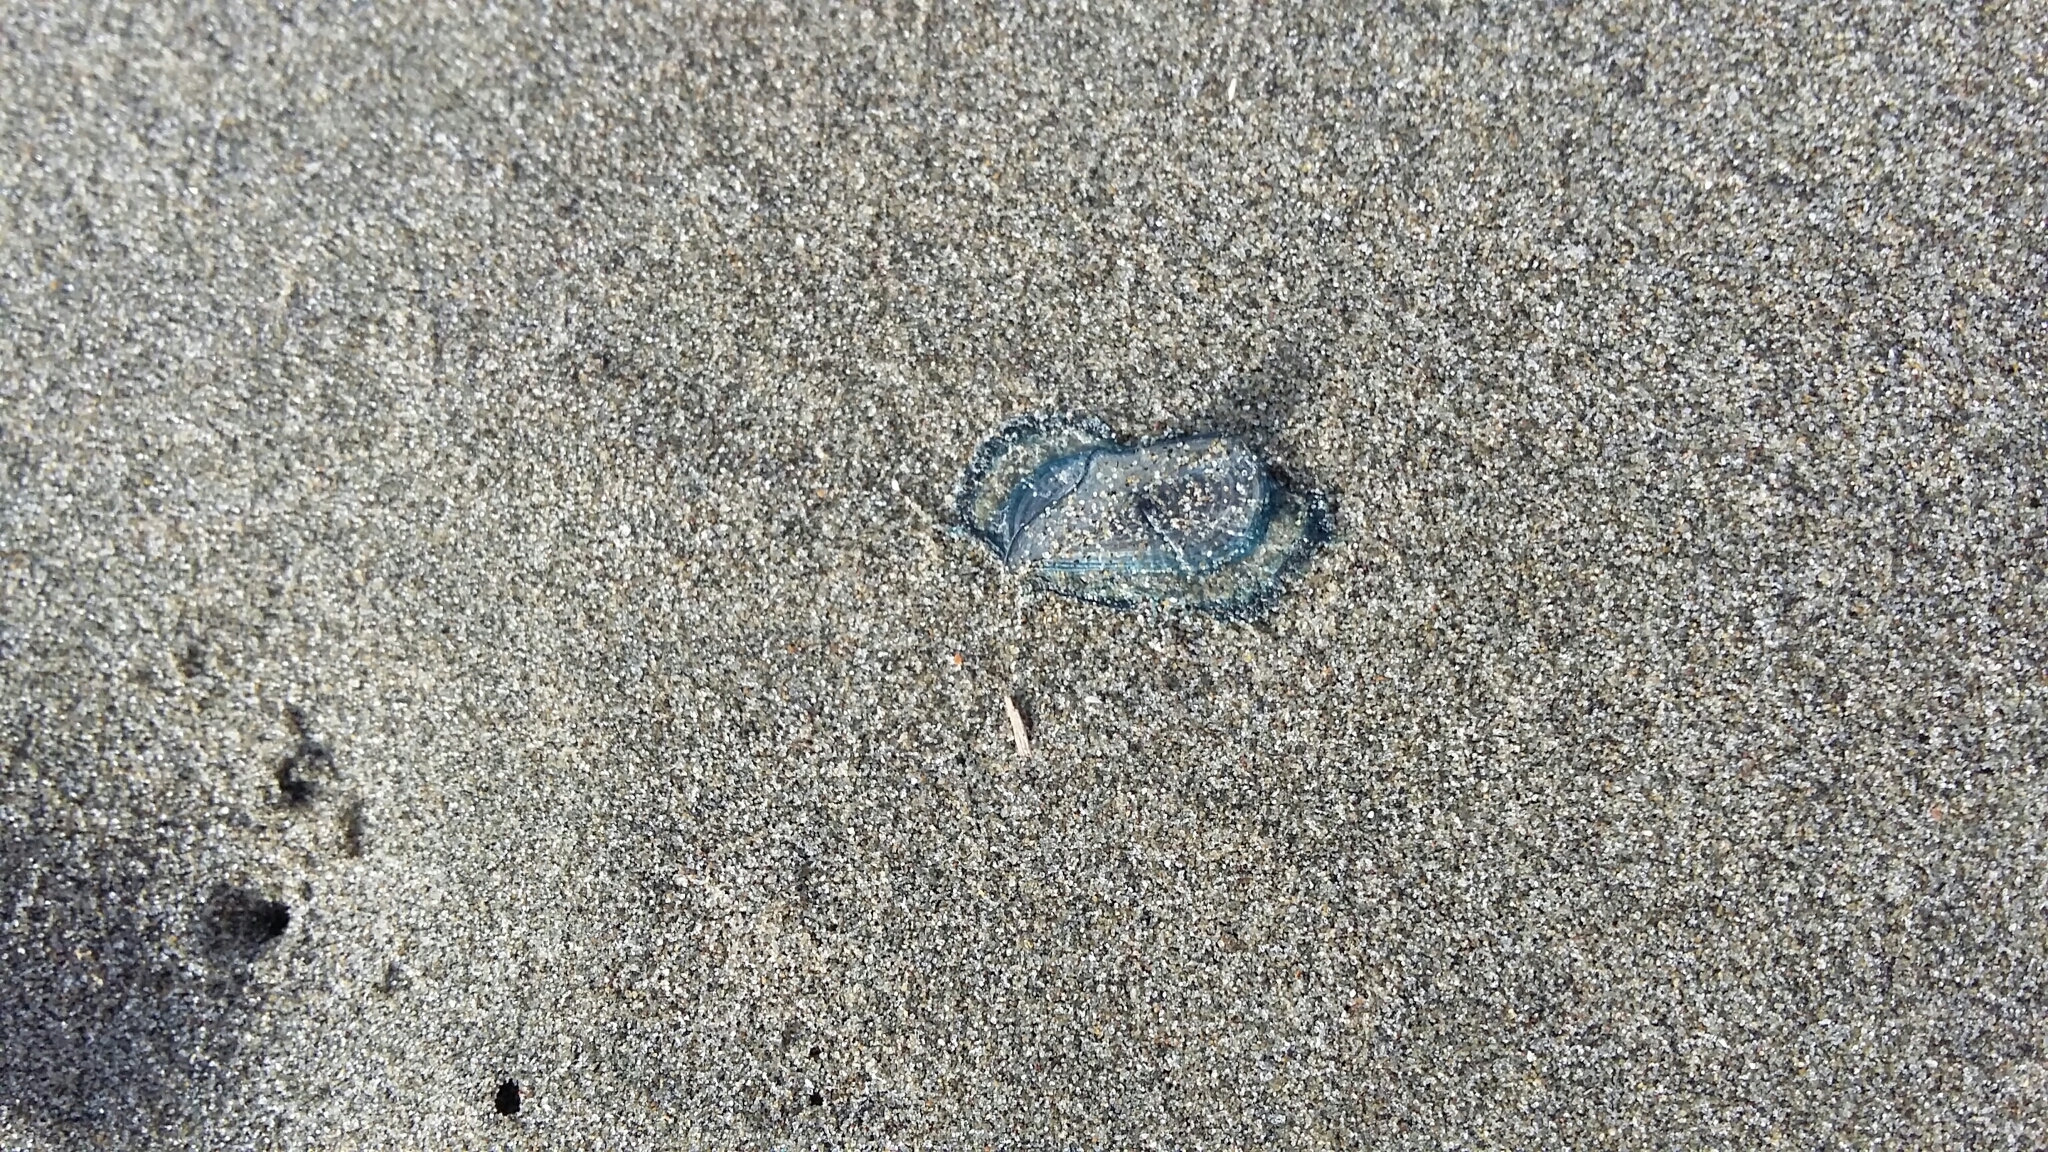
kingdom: Animalia
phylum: Cnidaria
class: Hydrozoa
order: Anthoathecata
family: Porpitidae
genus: Velella
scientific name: Velella velella
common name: By-the-wind-sailor
